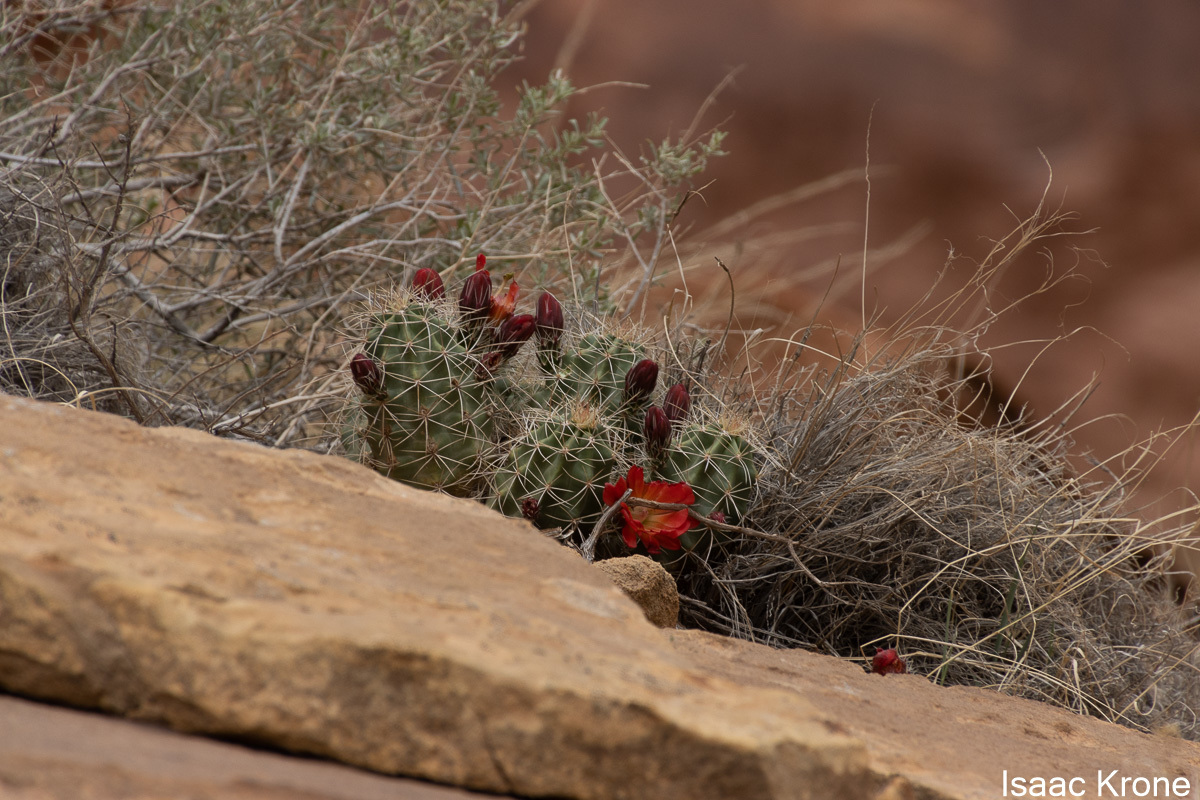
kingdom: Plantae
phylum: Tracheophyta
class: Magnoliopsida
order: Caryophyllales
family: Cactaceae
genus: Echinocereus
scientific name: Echinocereus triglochidiatus
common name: Claretcup hedgehog
